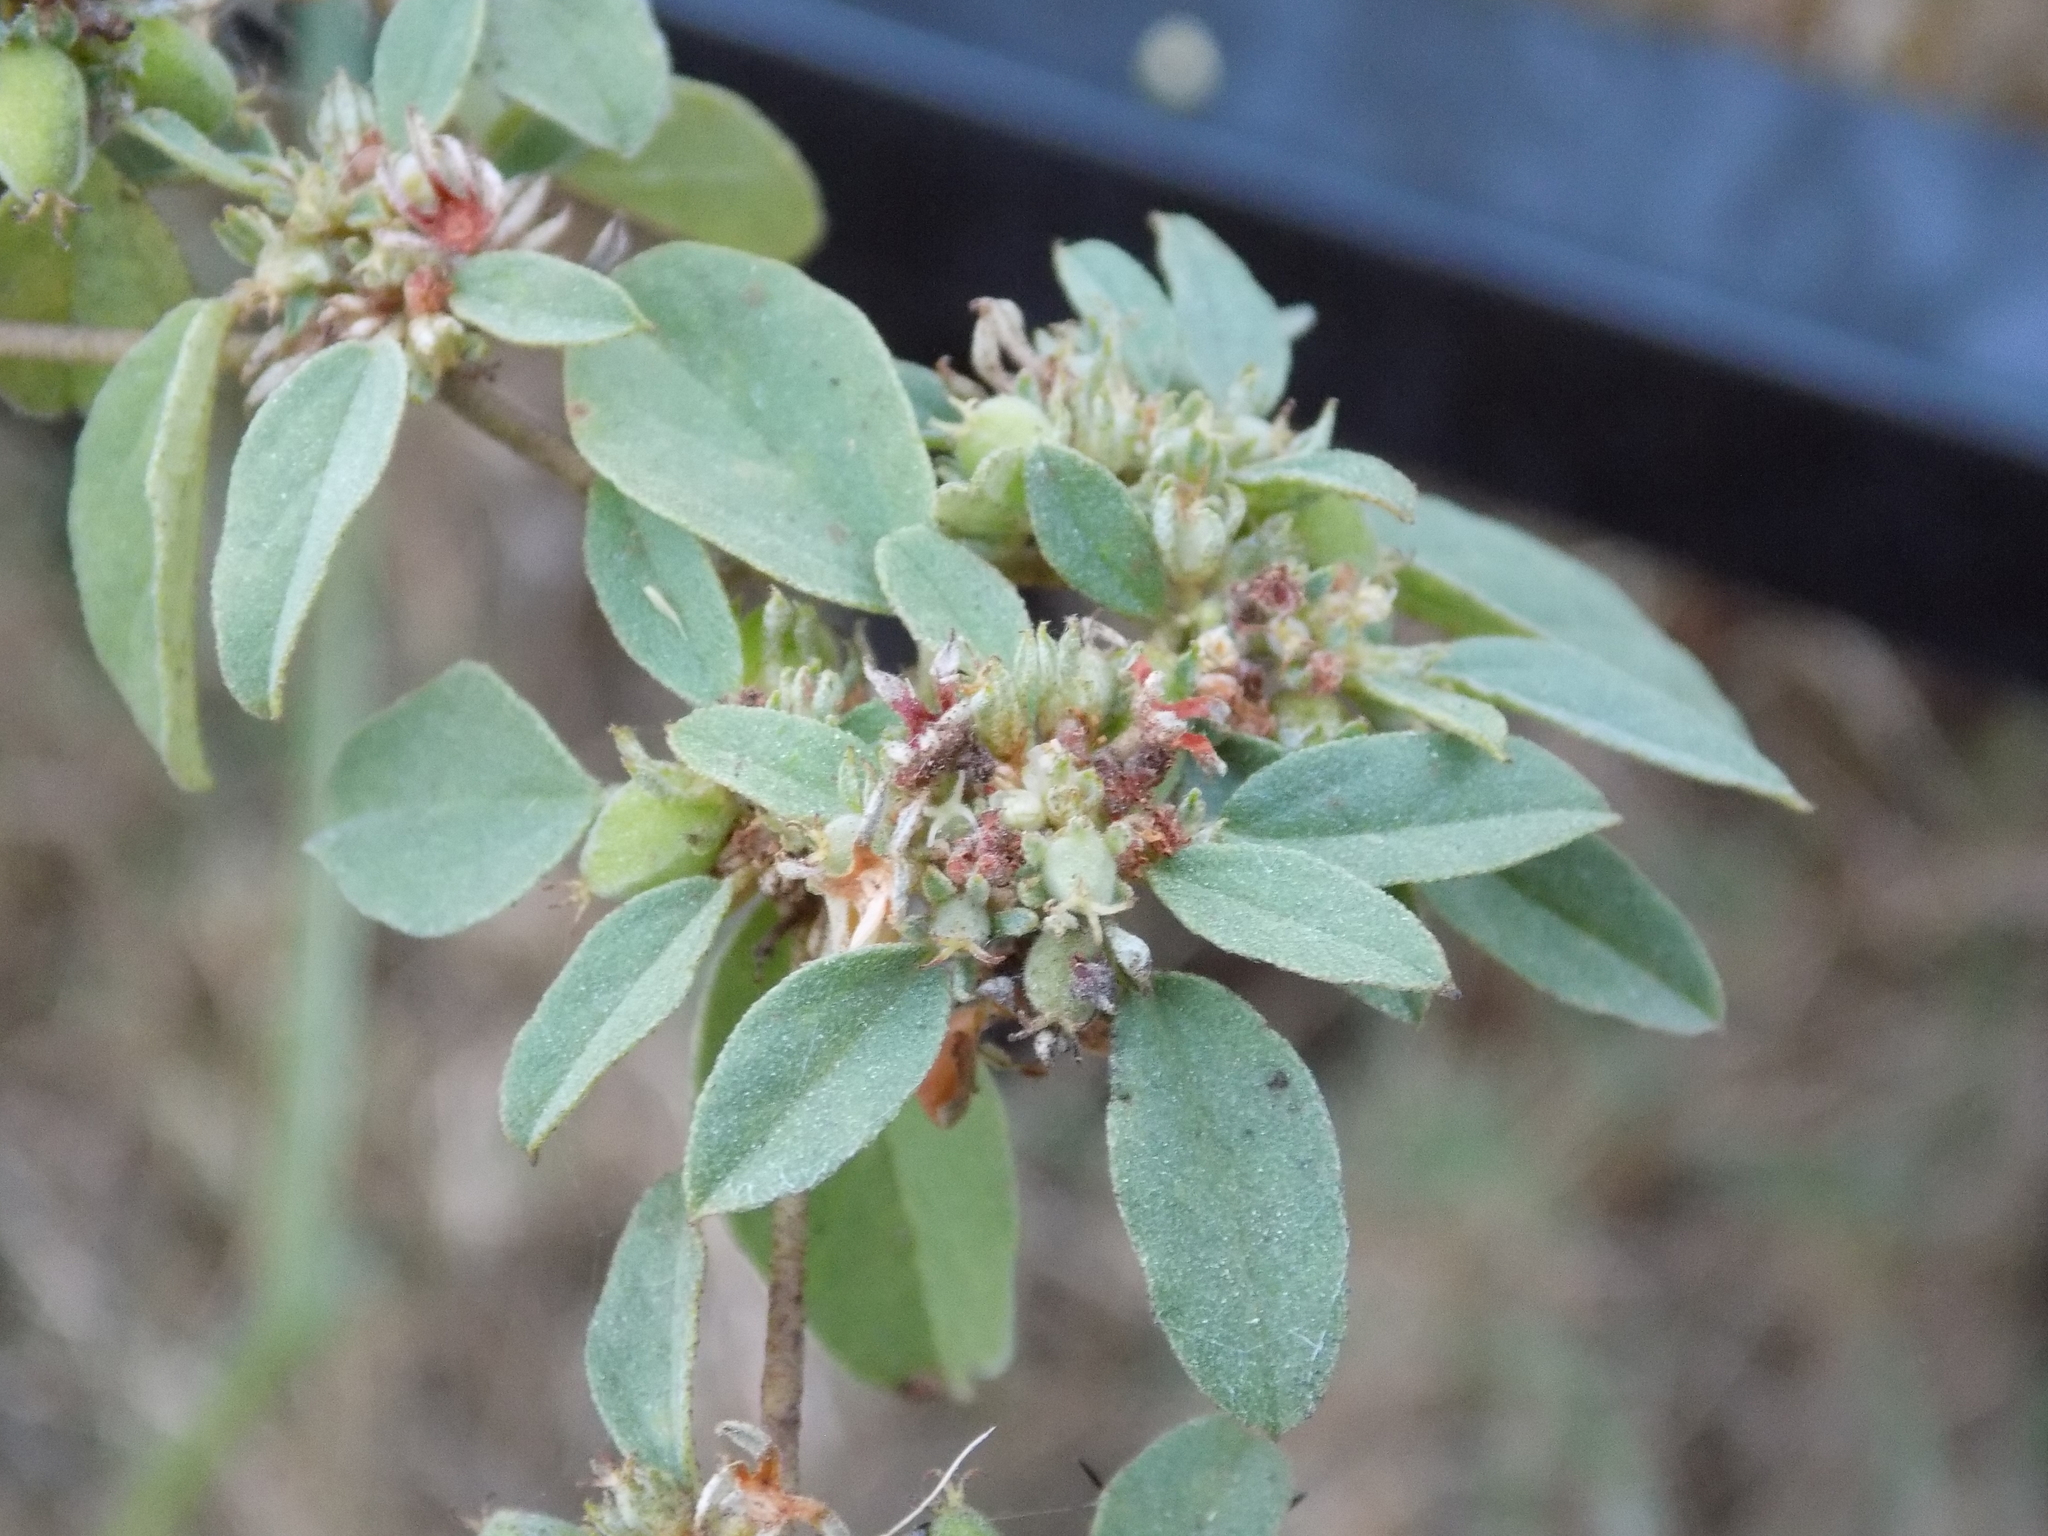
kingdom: Plantae
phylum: Tracheophyta
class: Magnoliopsida
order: Malpighiales
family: Euphorbiaceae
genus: Croton
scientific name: Croton monanthogynus
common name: One-seed croton
